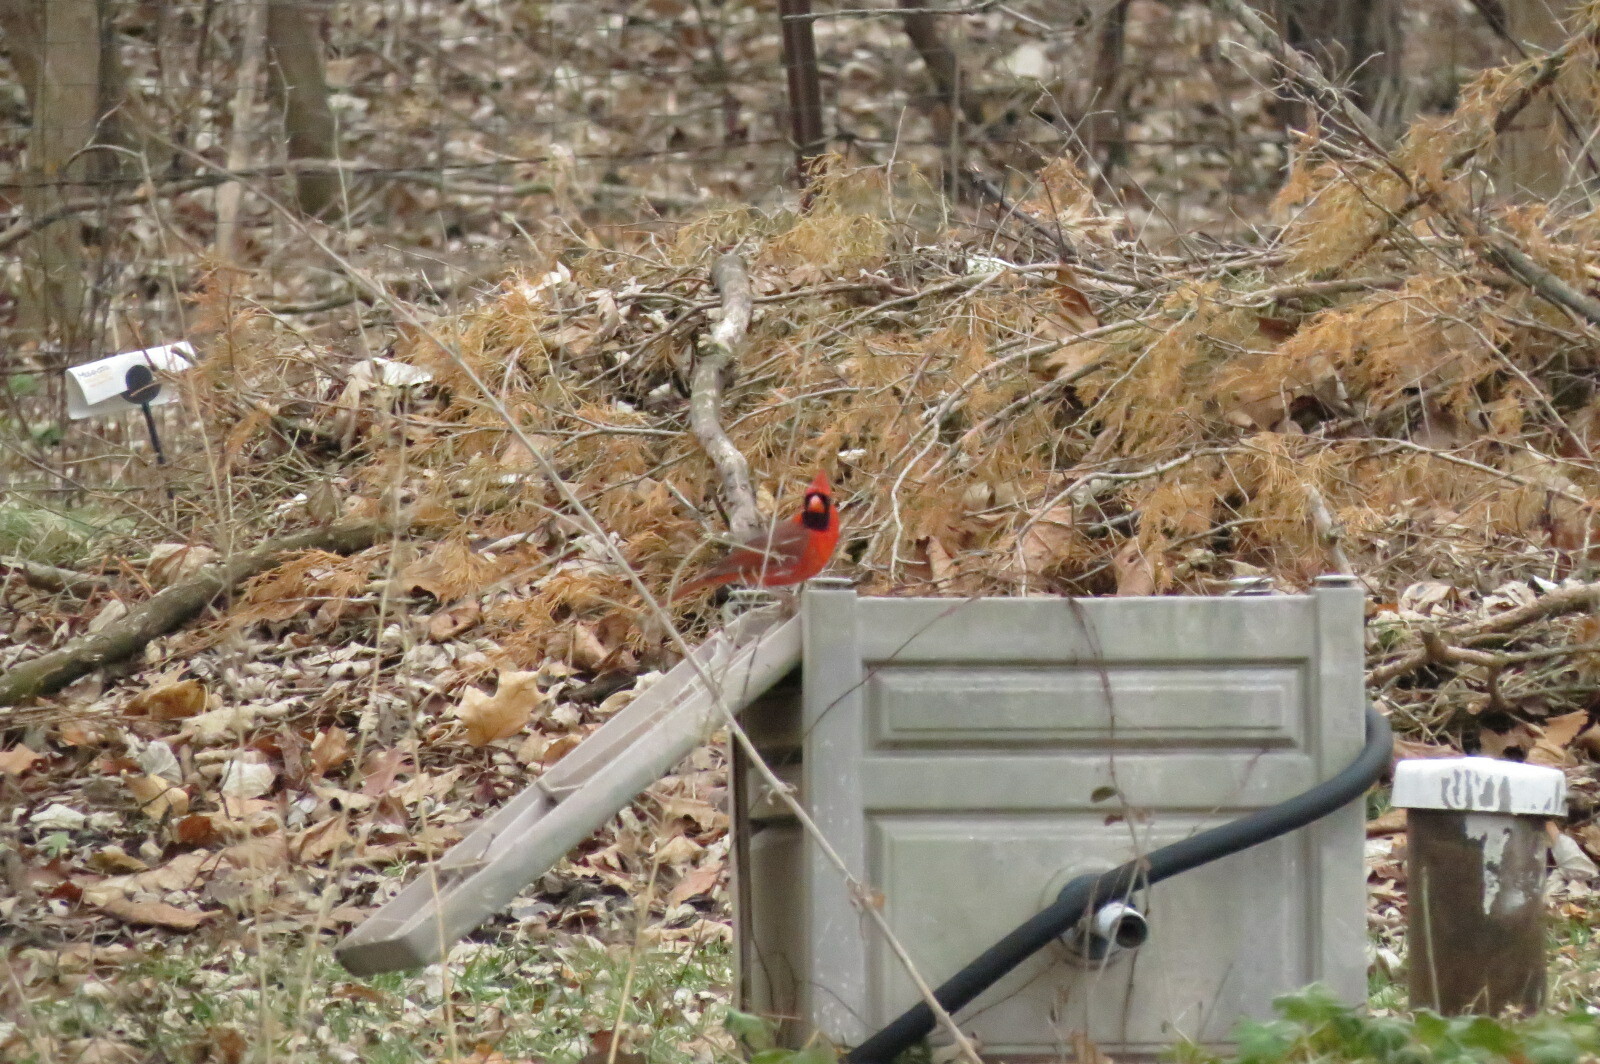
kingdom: Animalia
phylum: Chordata
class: Aves
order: Passeriformes
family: Cardinalidae
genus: Cardinalis
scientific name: Cardinalis cardinalis
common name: Northern cardinal
